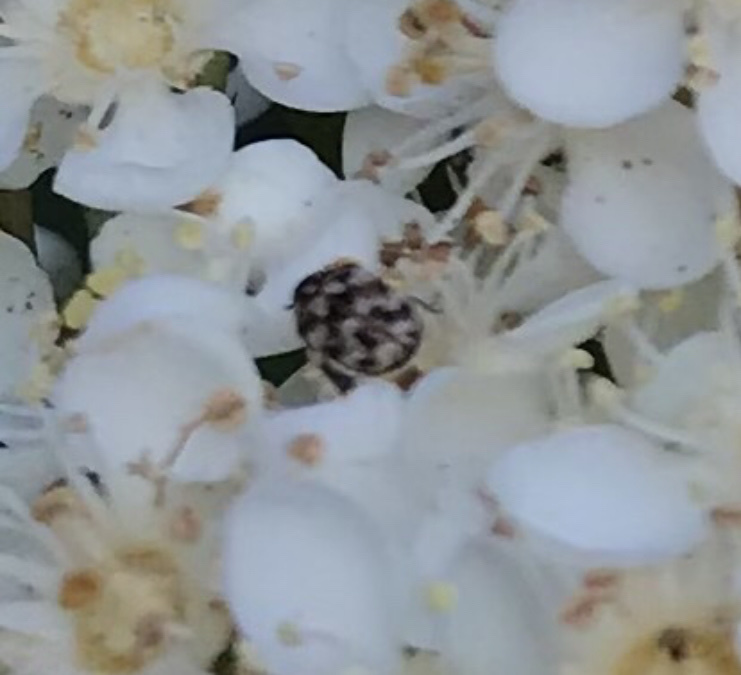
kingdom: Animalia
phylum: Arthropoda
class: Insecta
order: Coleoptera
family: Dermestidae
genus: Anthrenus
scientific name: Anthrenus verbasci
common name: Varied carpet beetle
